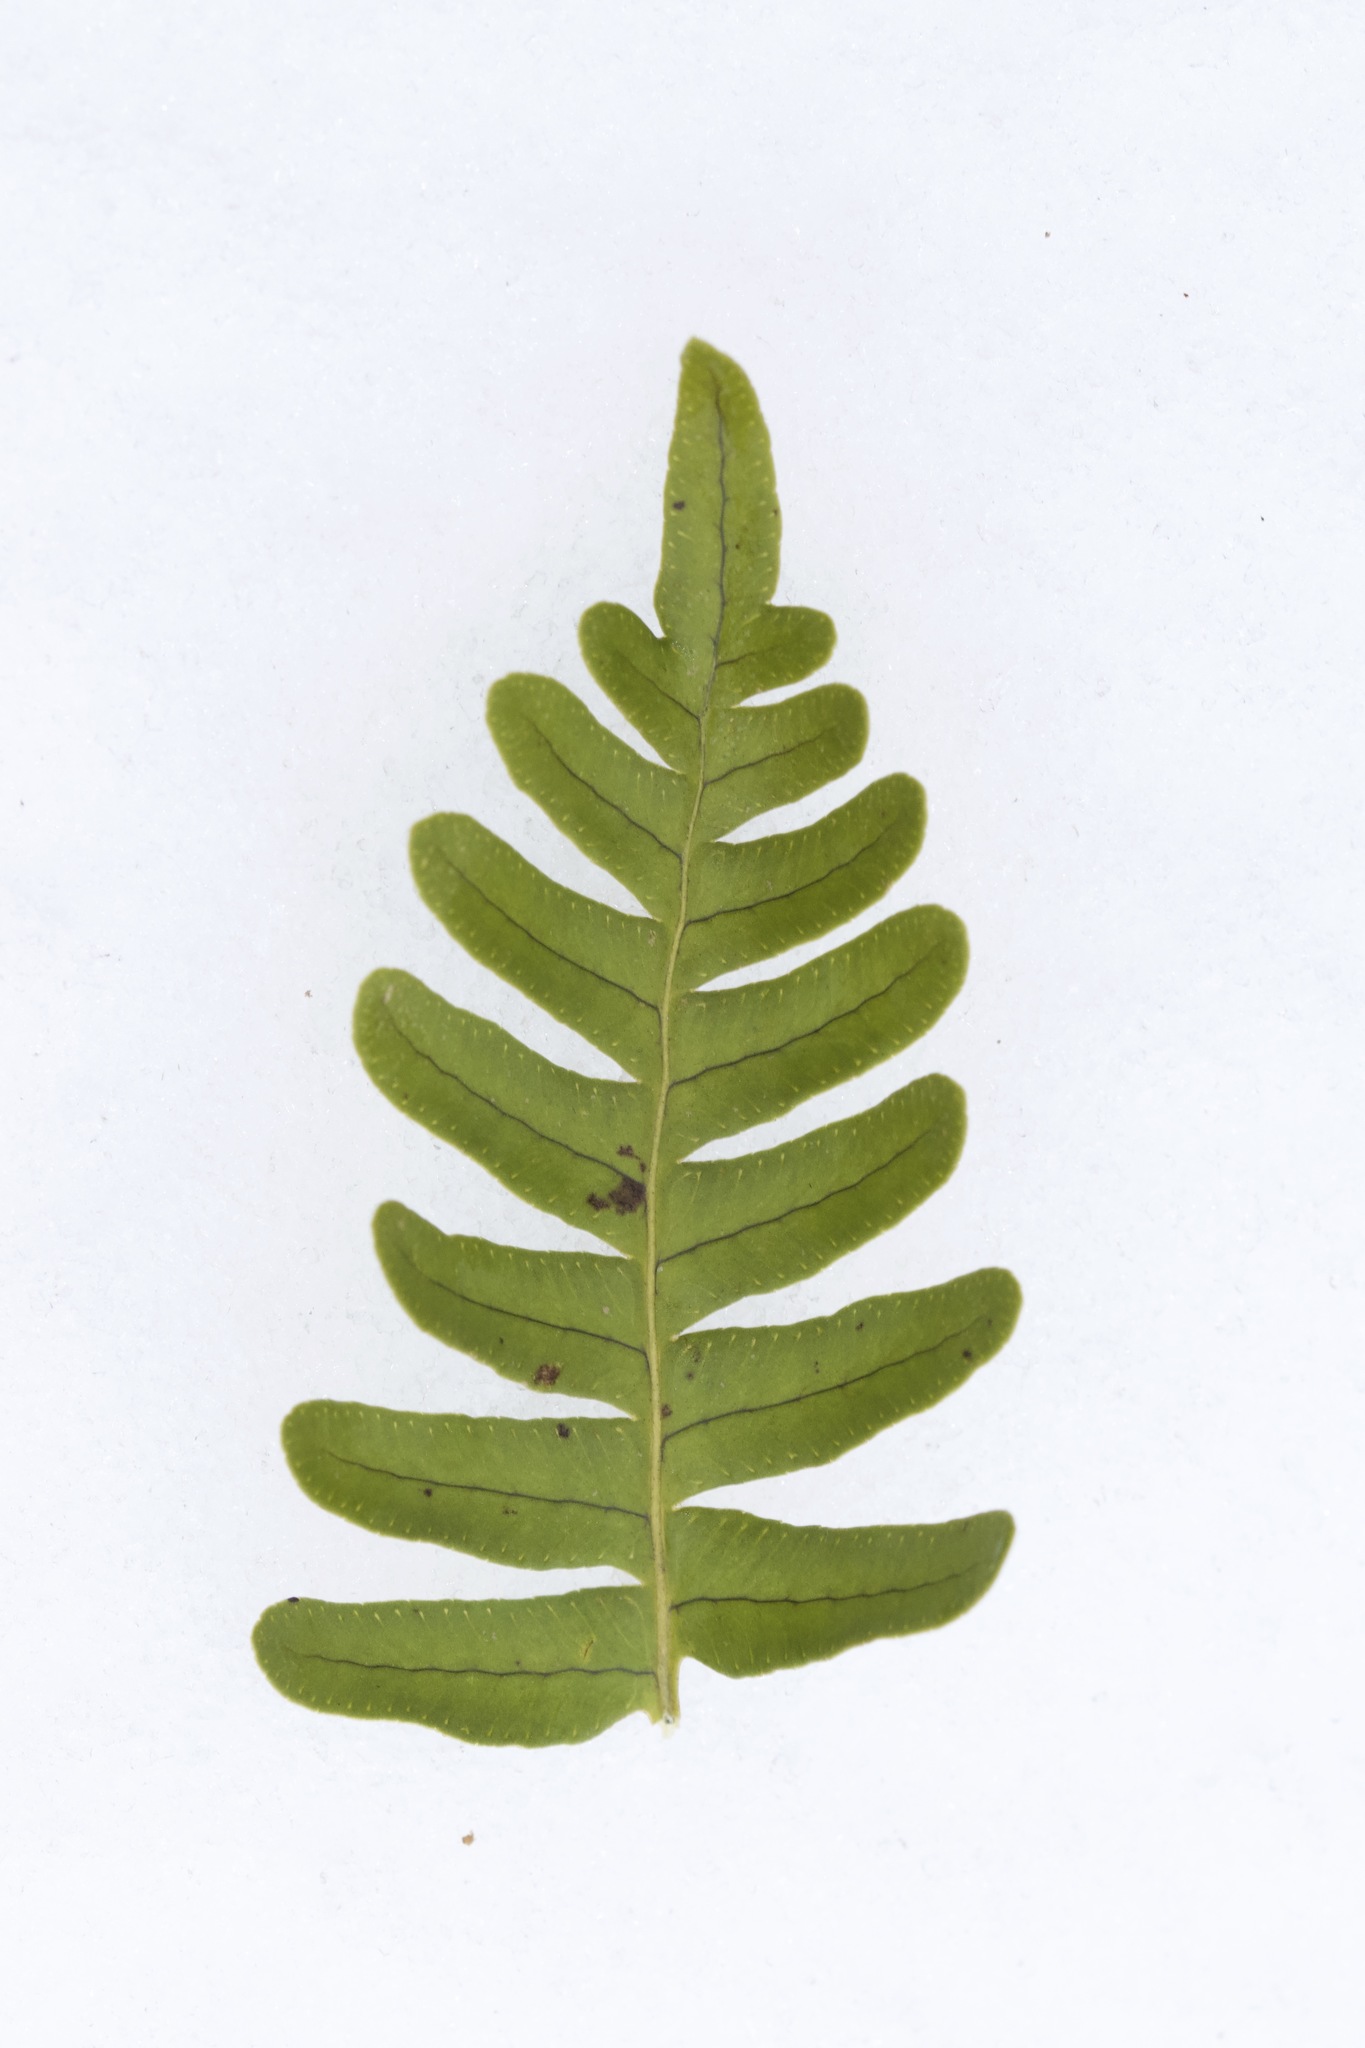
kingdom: Plantae
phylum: Tracheophyta
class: Polypodiopsida
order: Polypodiales
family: Polypodiaceae
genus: Polypodium
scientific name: Polypodium virginianum
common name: American wall fern
